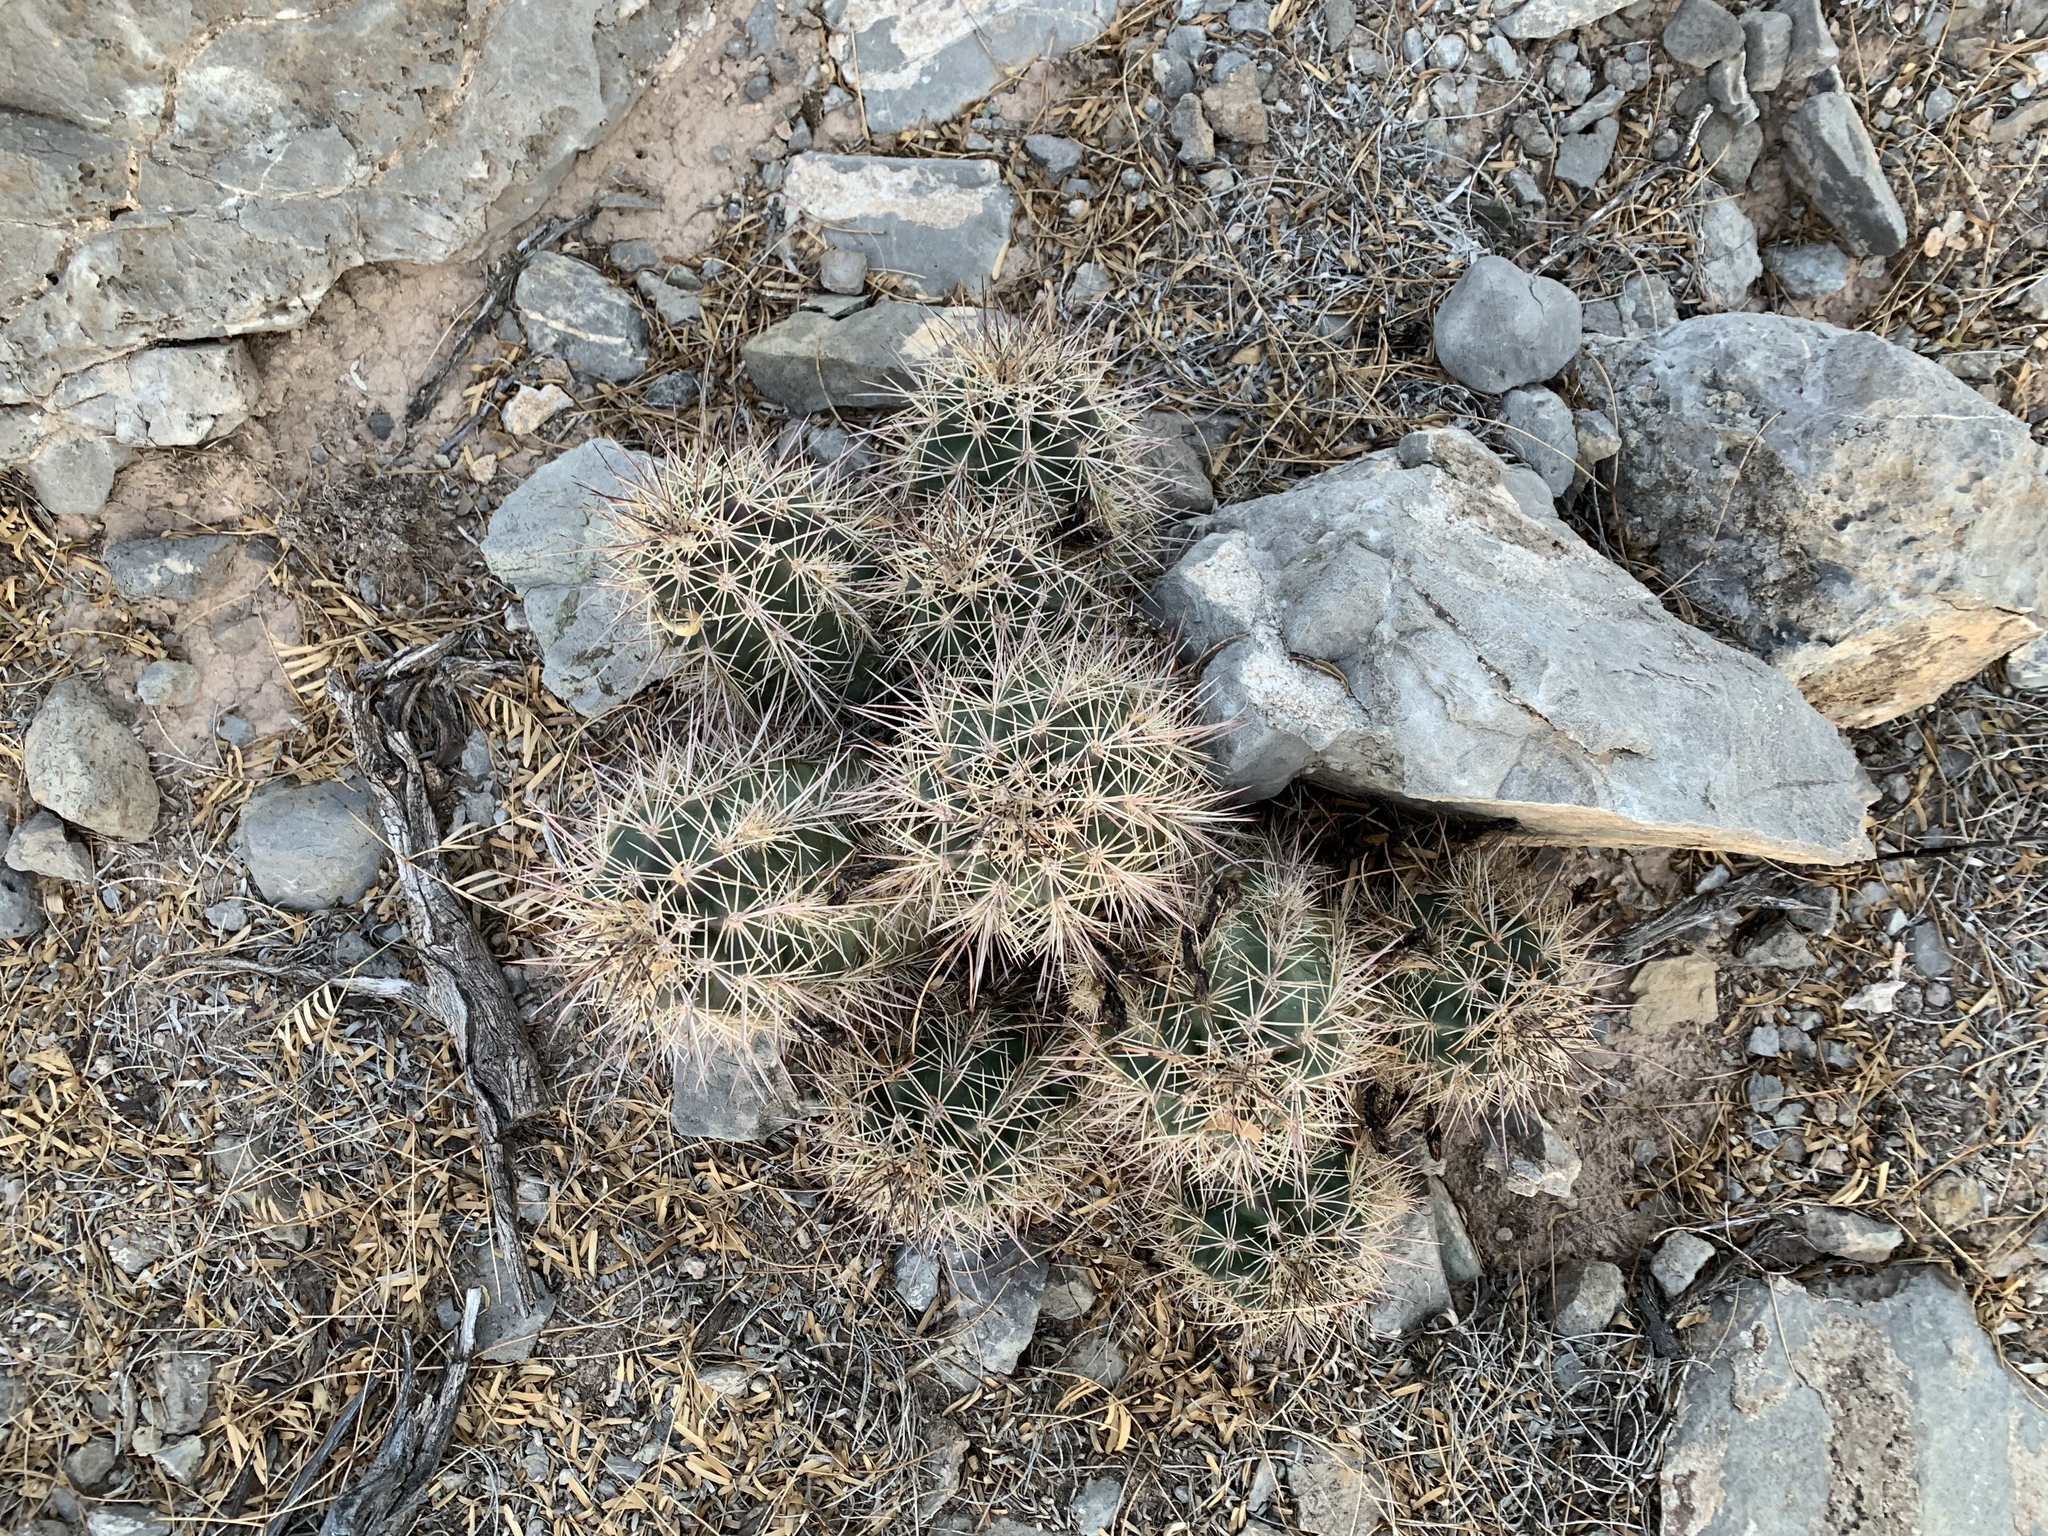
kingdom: Plantae
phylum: Tracheophyta
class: Magnoliopsida
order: Caryophyllales
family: Cactaceae
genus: Echinocereus
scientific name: Echinocereus coccineus
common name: Scarlet hedgehog cactus
